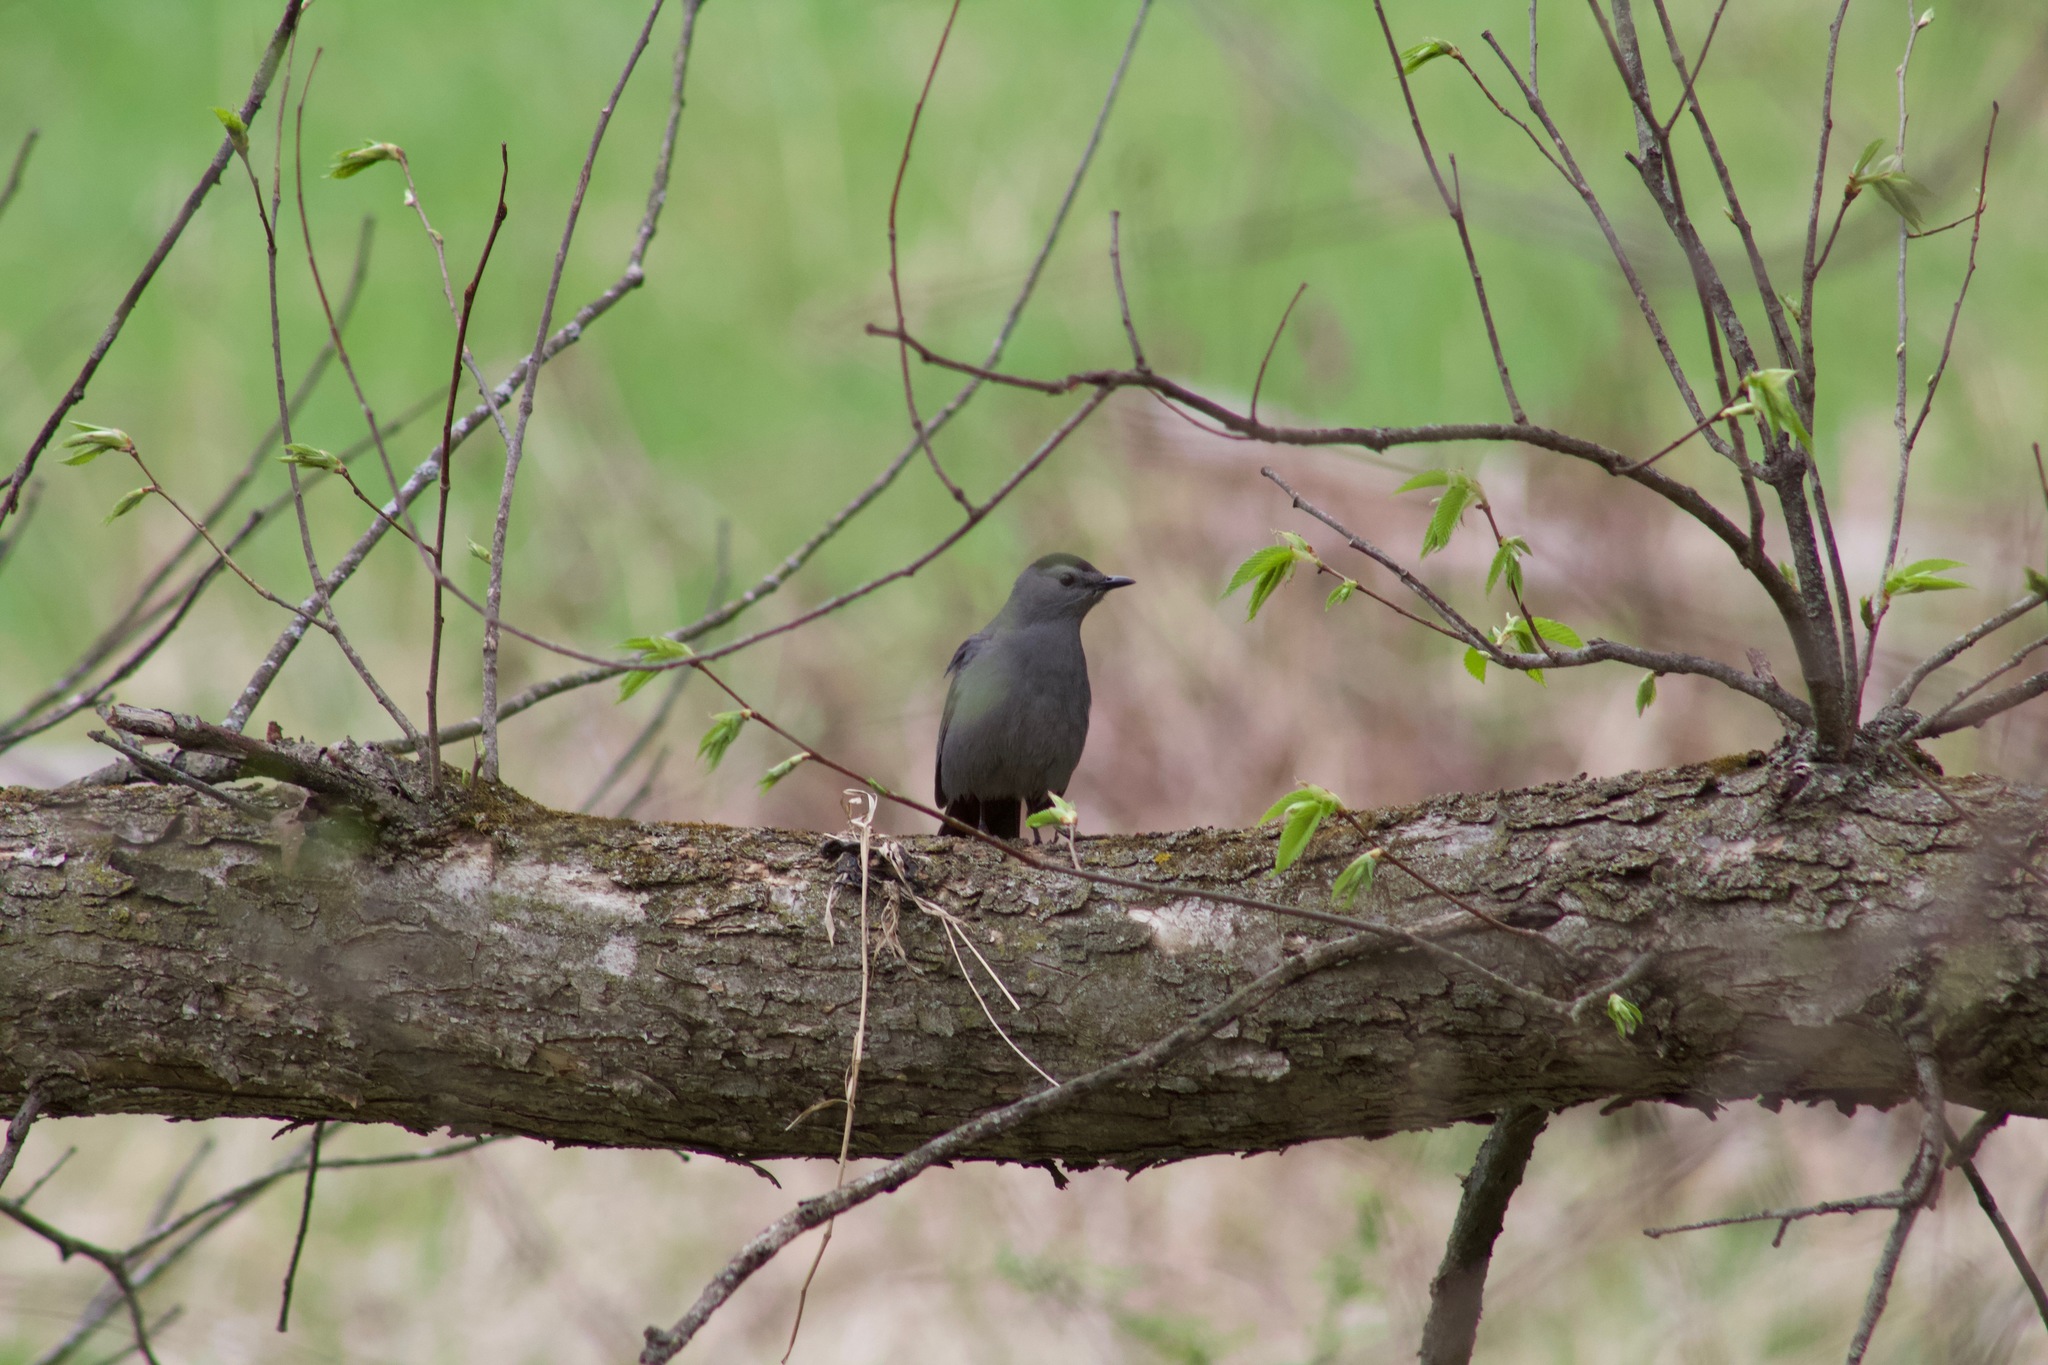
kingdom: Animalia
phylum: Chordata
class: Aves
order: Passeriformes
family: Mimidae
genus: Dumetella
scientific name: Dumetella carolinensis
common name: Gray catbird
